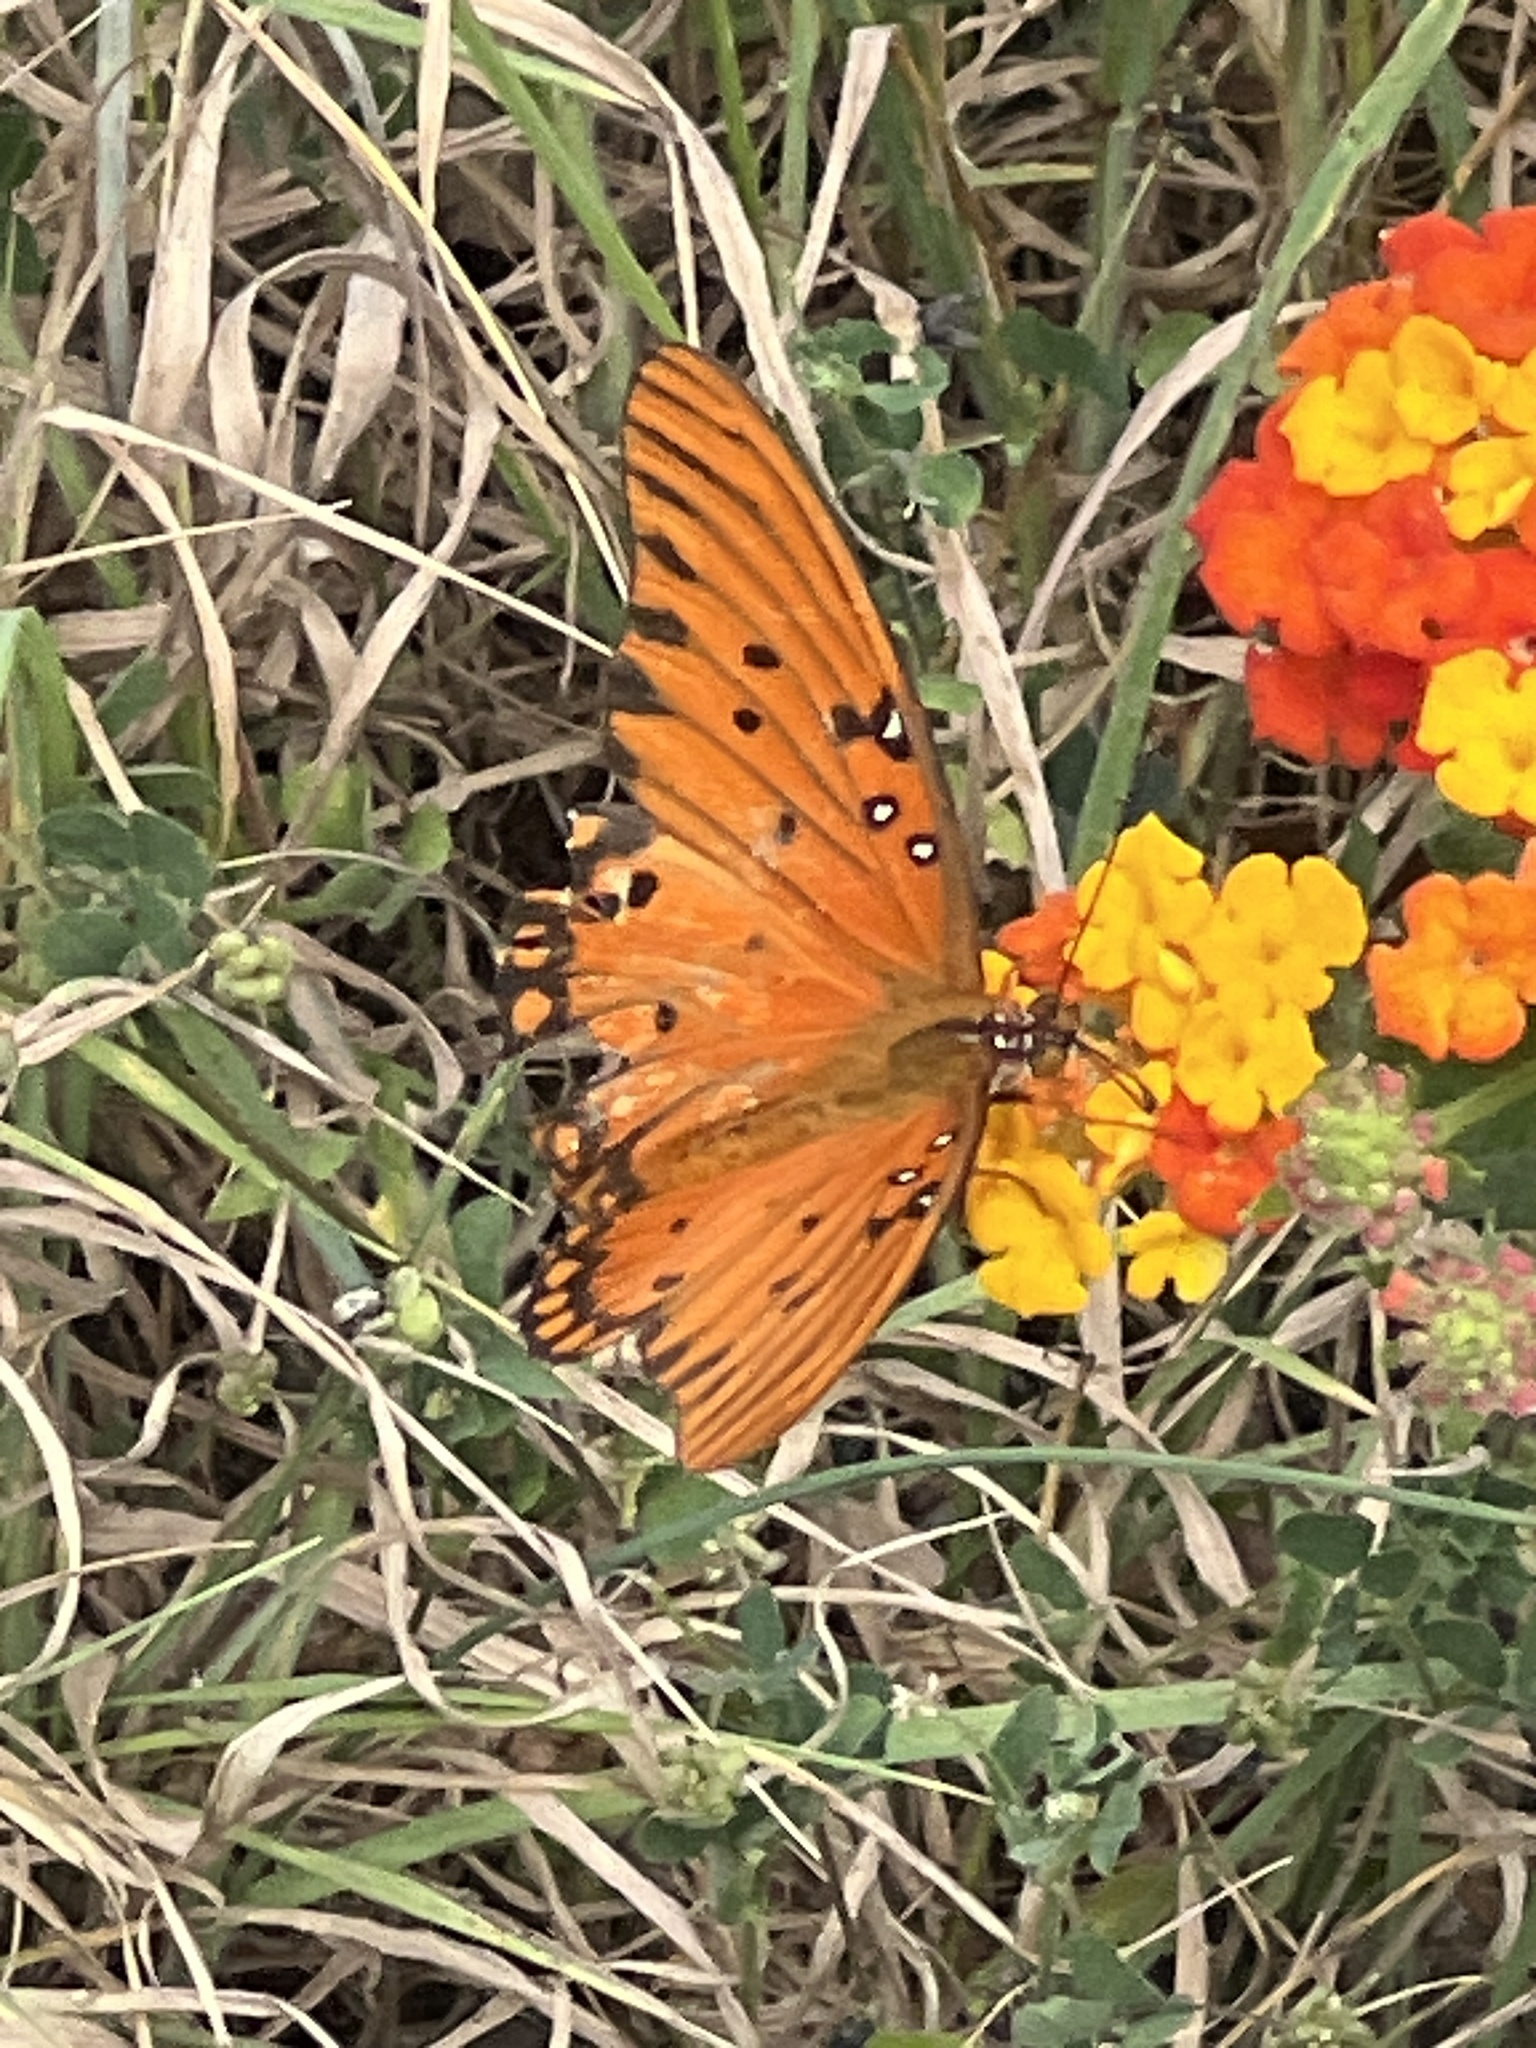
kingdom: Animalia
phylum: Arthropoda
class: Insecta
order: Lepidoptera
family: Nymphalidae
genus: Dione
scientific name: Dione vanillae
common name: Gulf fritillary
